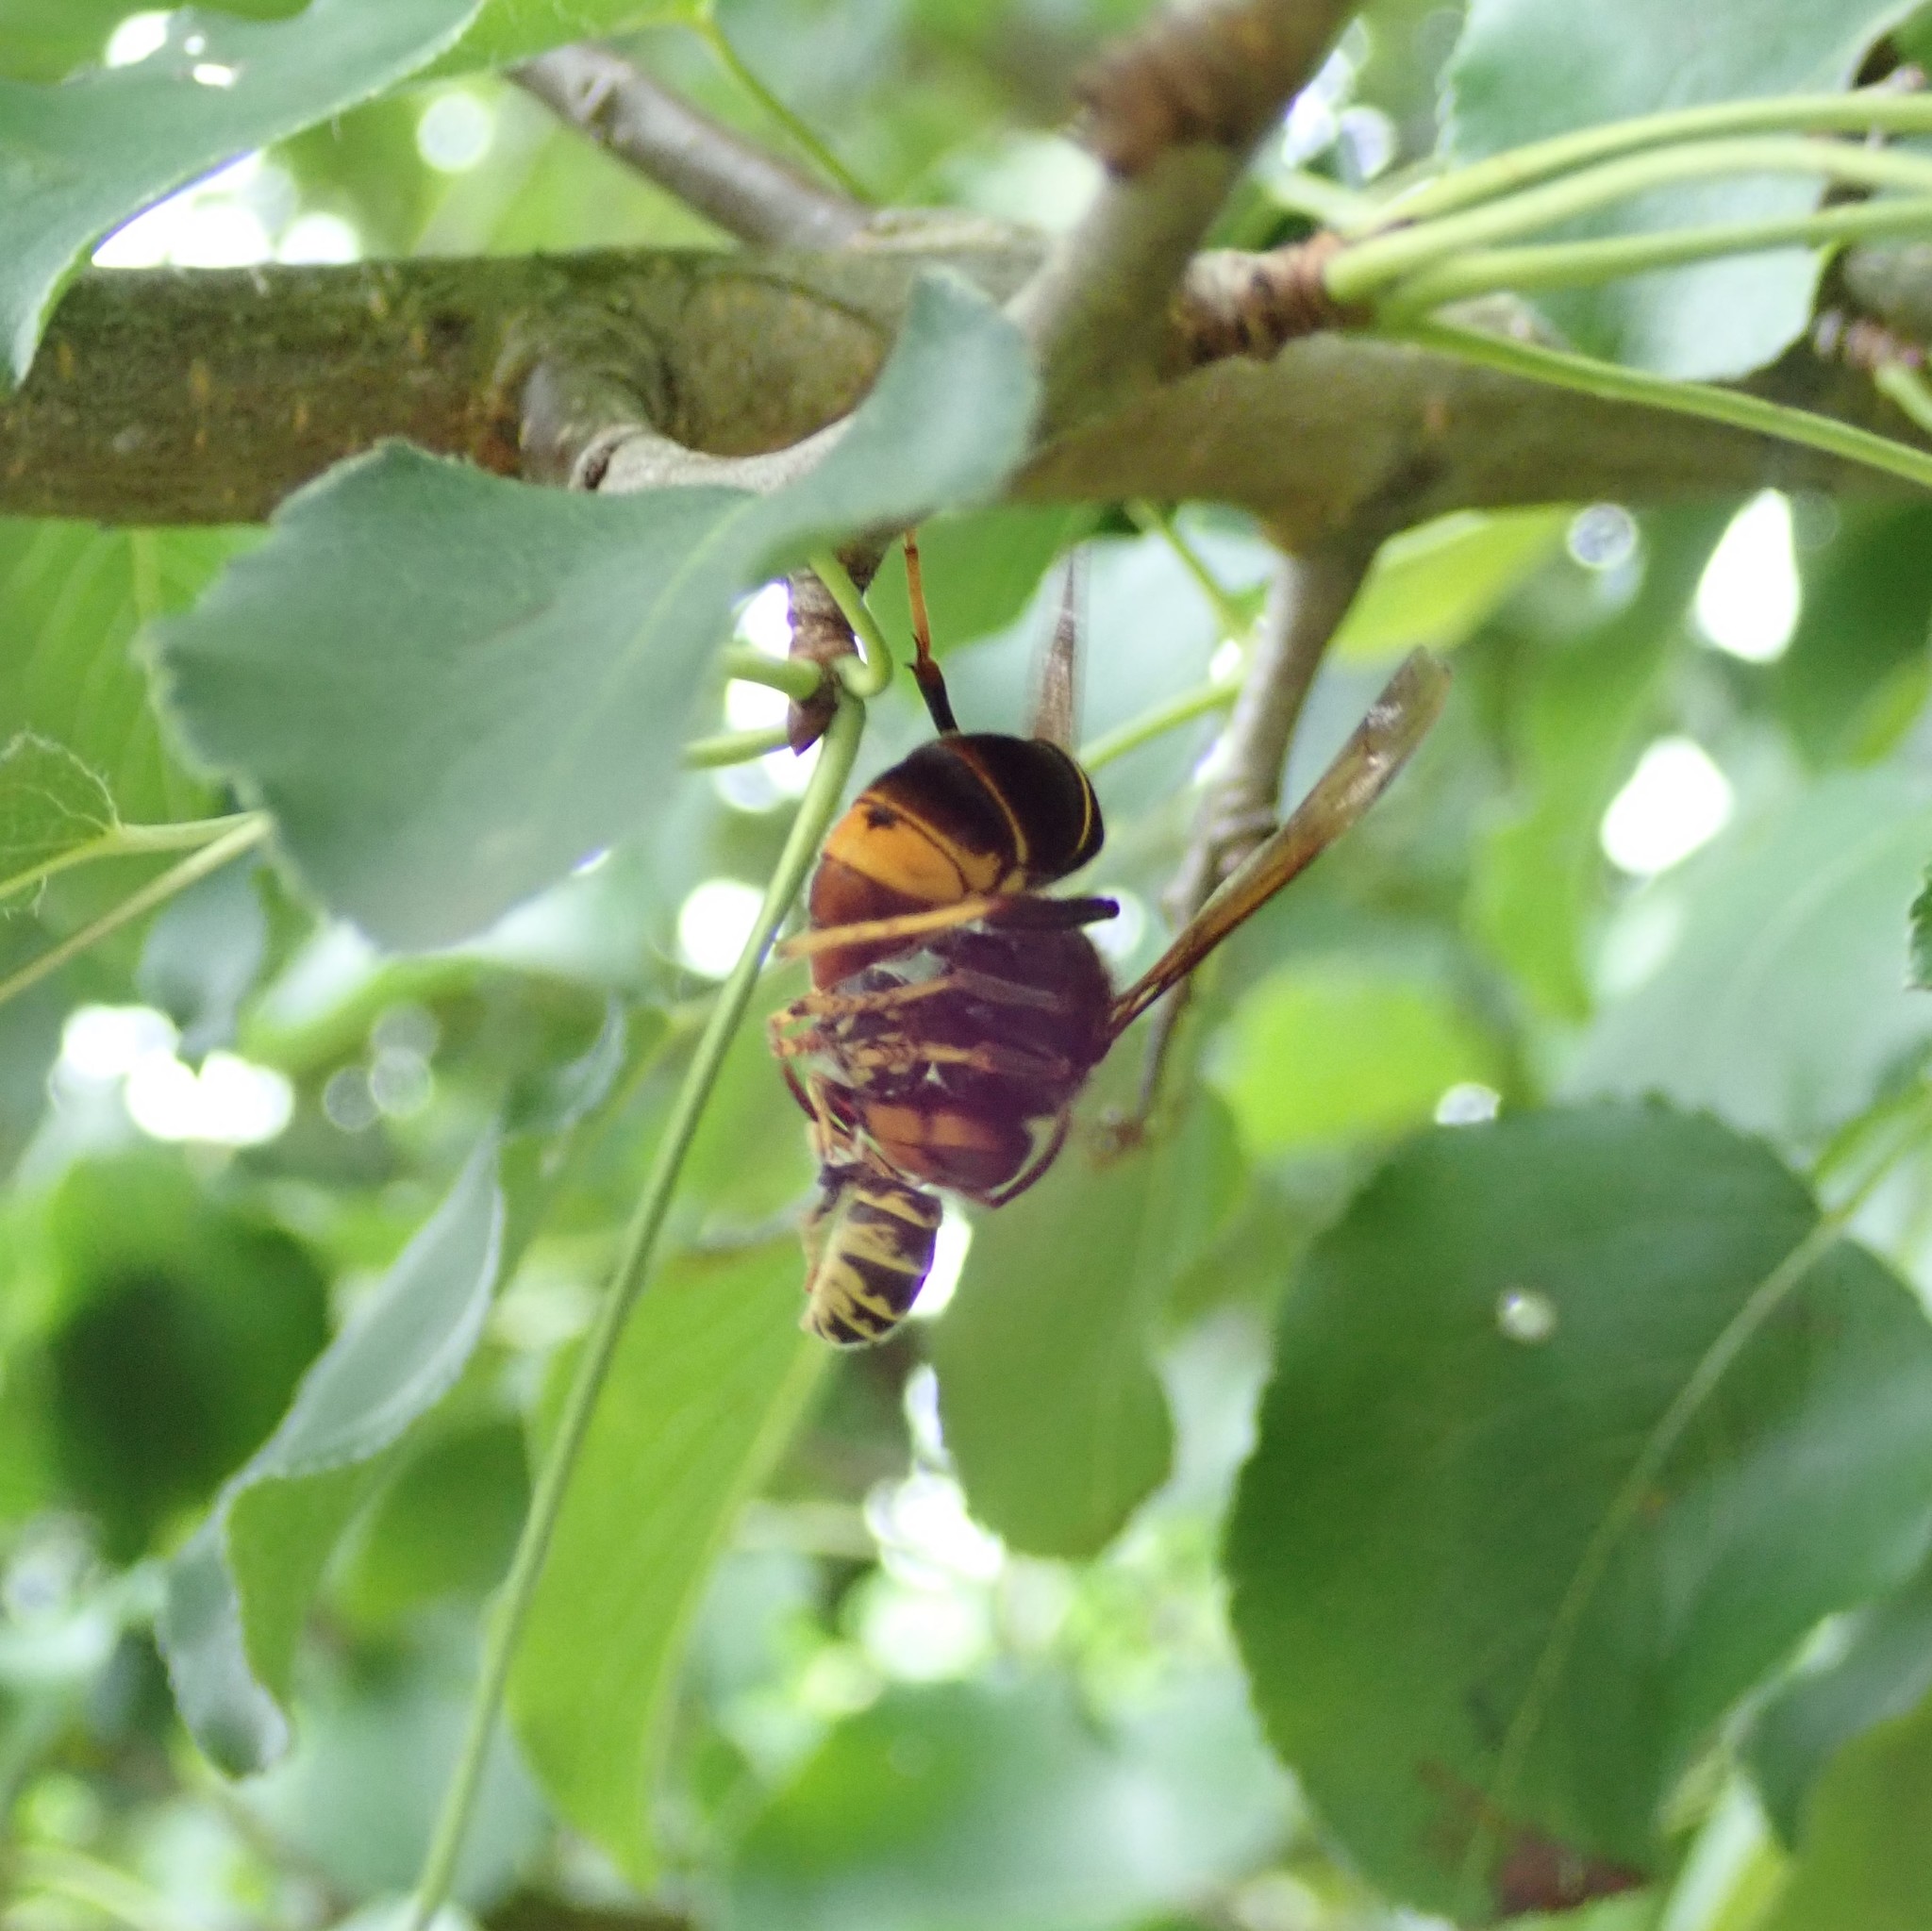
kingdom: Animalia
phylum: Arthropoda
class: Insecta
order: Hymenoptera
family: Vespidae
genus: Vespa
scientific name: Vespa velutina
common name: Asian hornet
